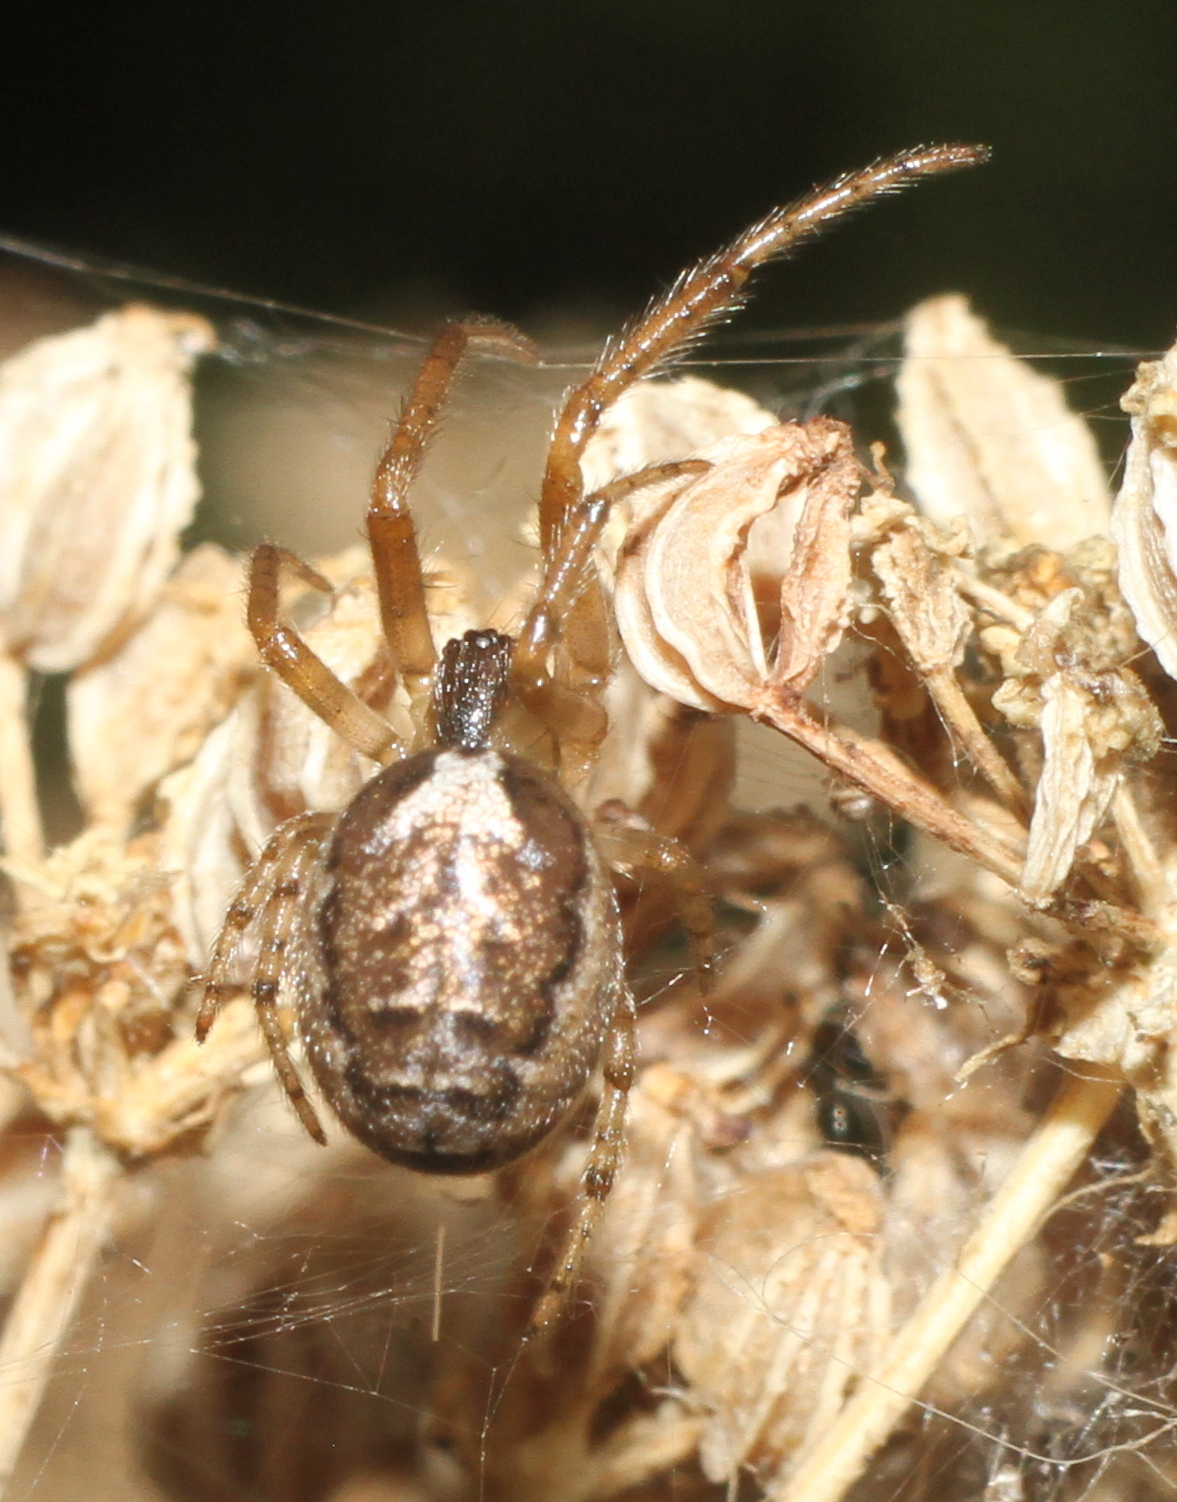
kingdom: Animalia
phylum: Arthropoda
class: Arachnida
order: Araneae
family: Araneidae
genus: Zygiella
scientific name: Zygiella x-notata
